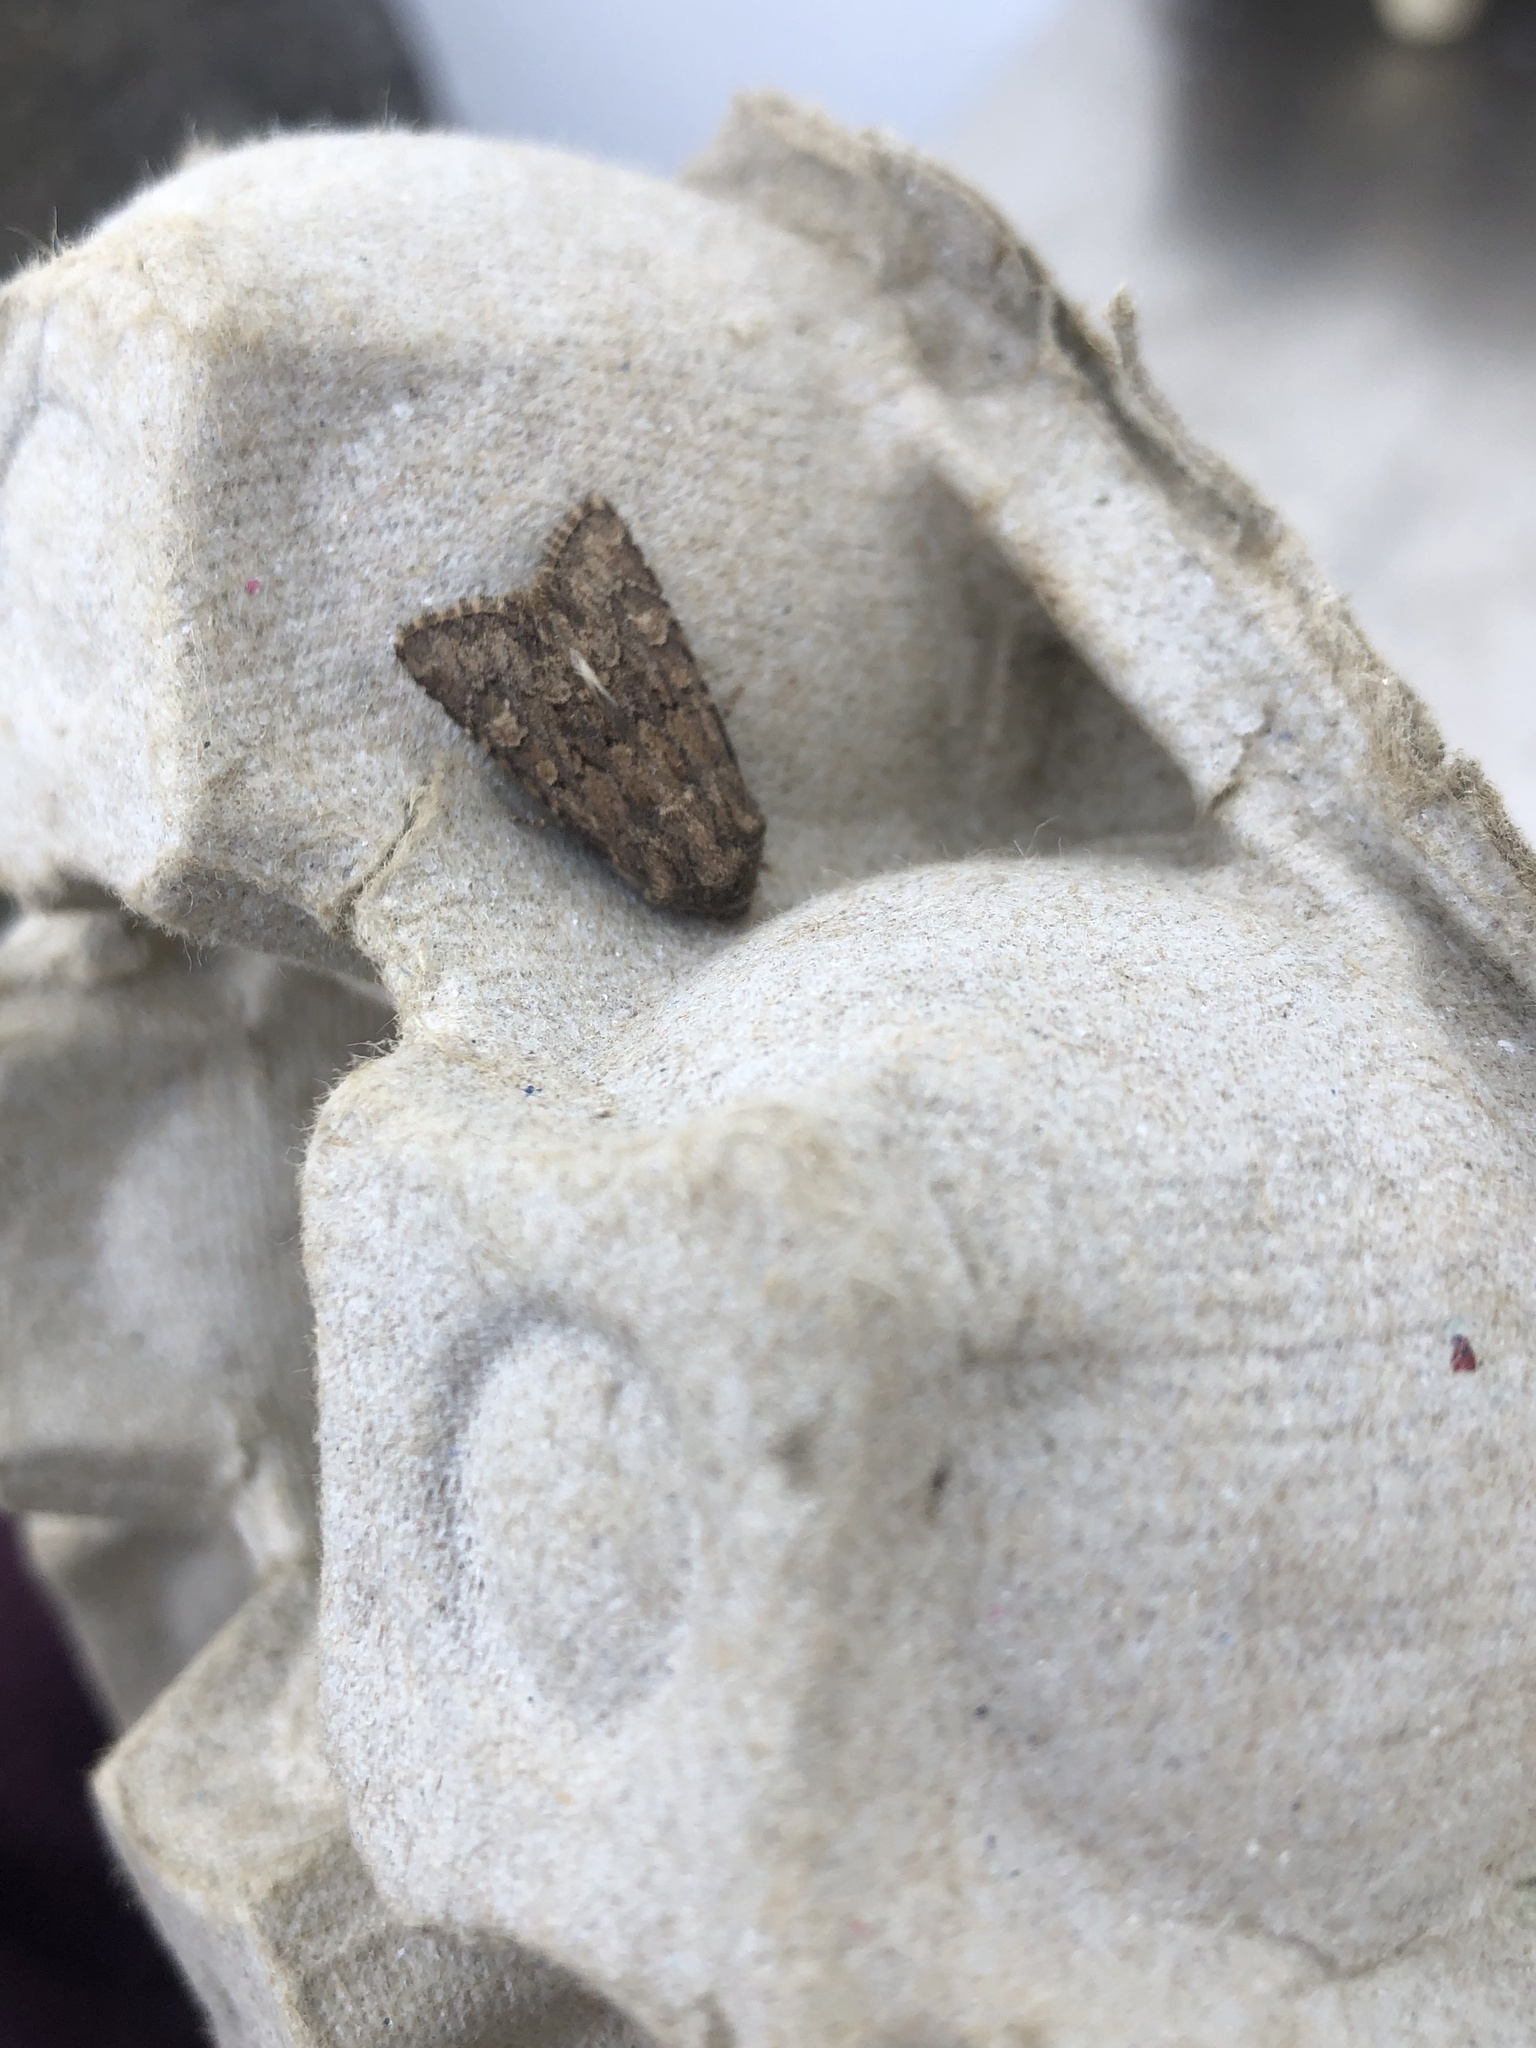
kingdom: Animalia
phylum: Arthropoda
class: Insecta
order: Lepidoptera
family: Noctuidae
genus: Luperina
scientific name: Luperina testacea
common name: Flounced rustic
